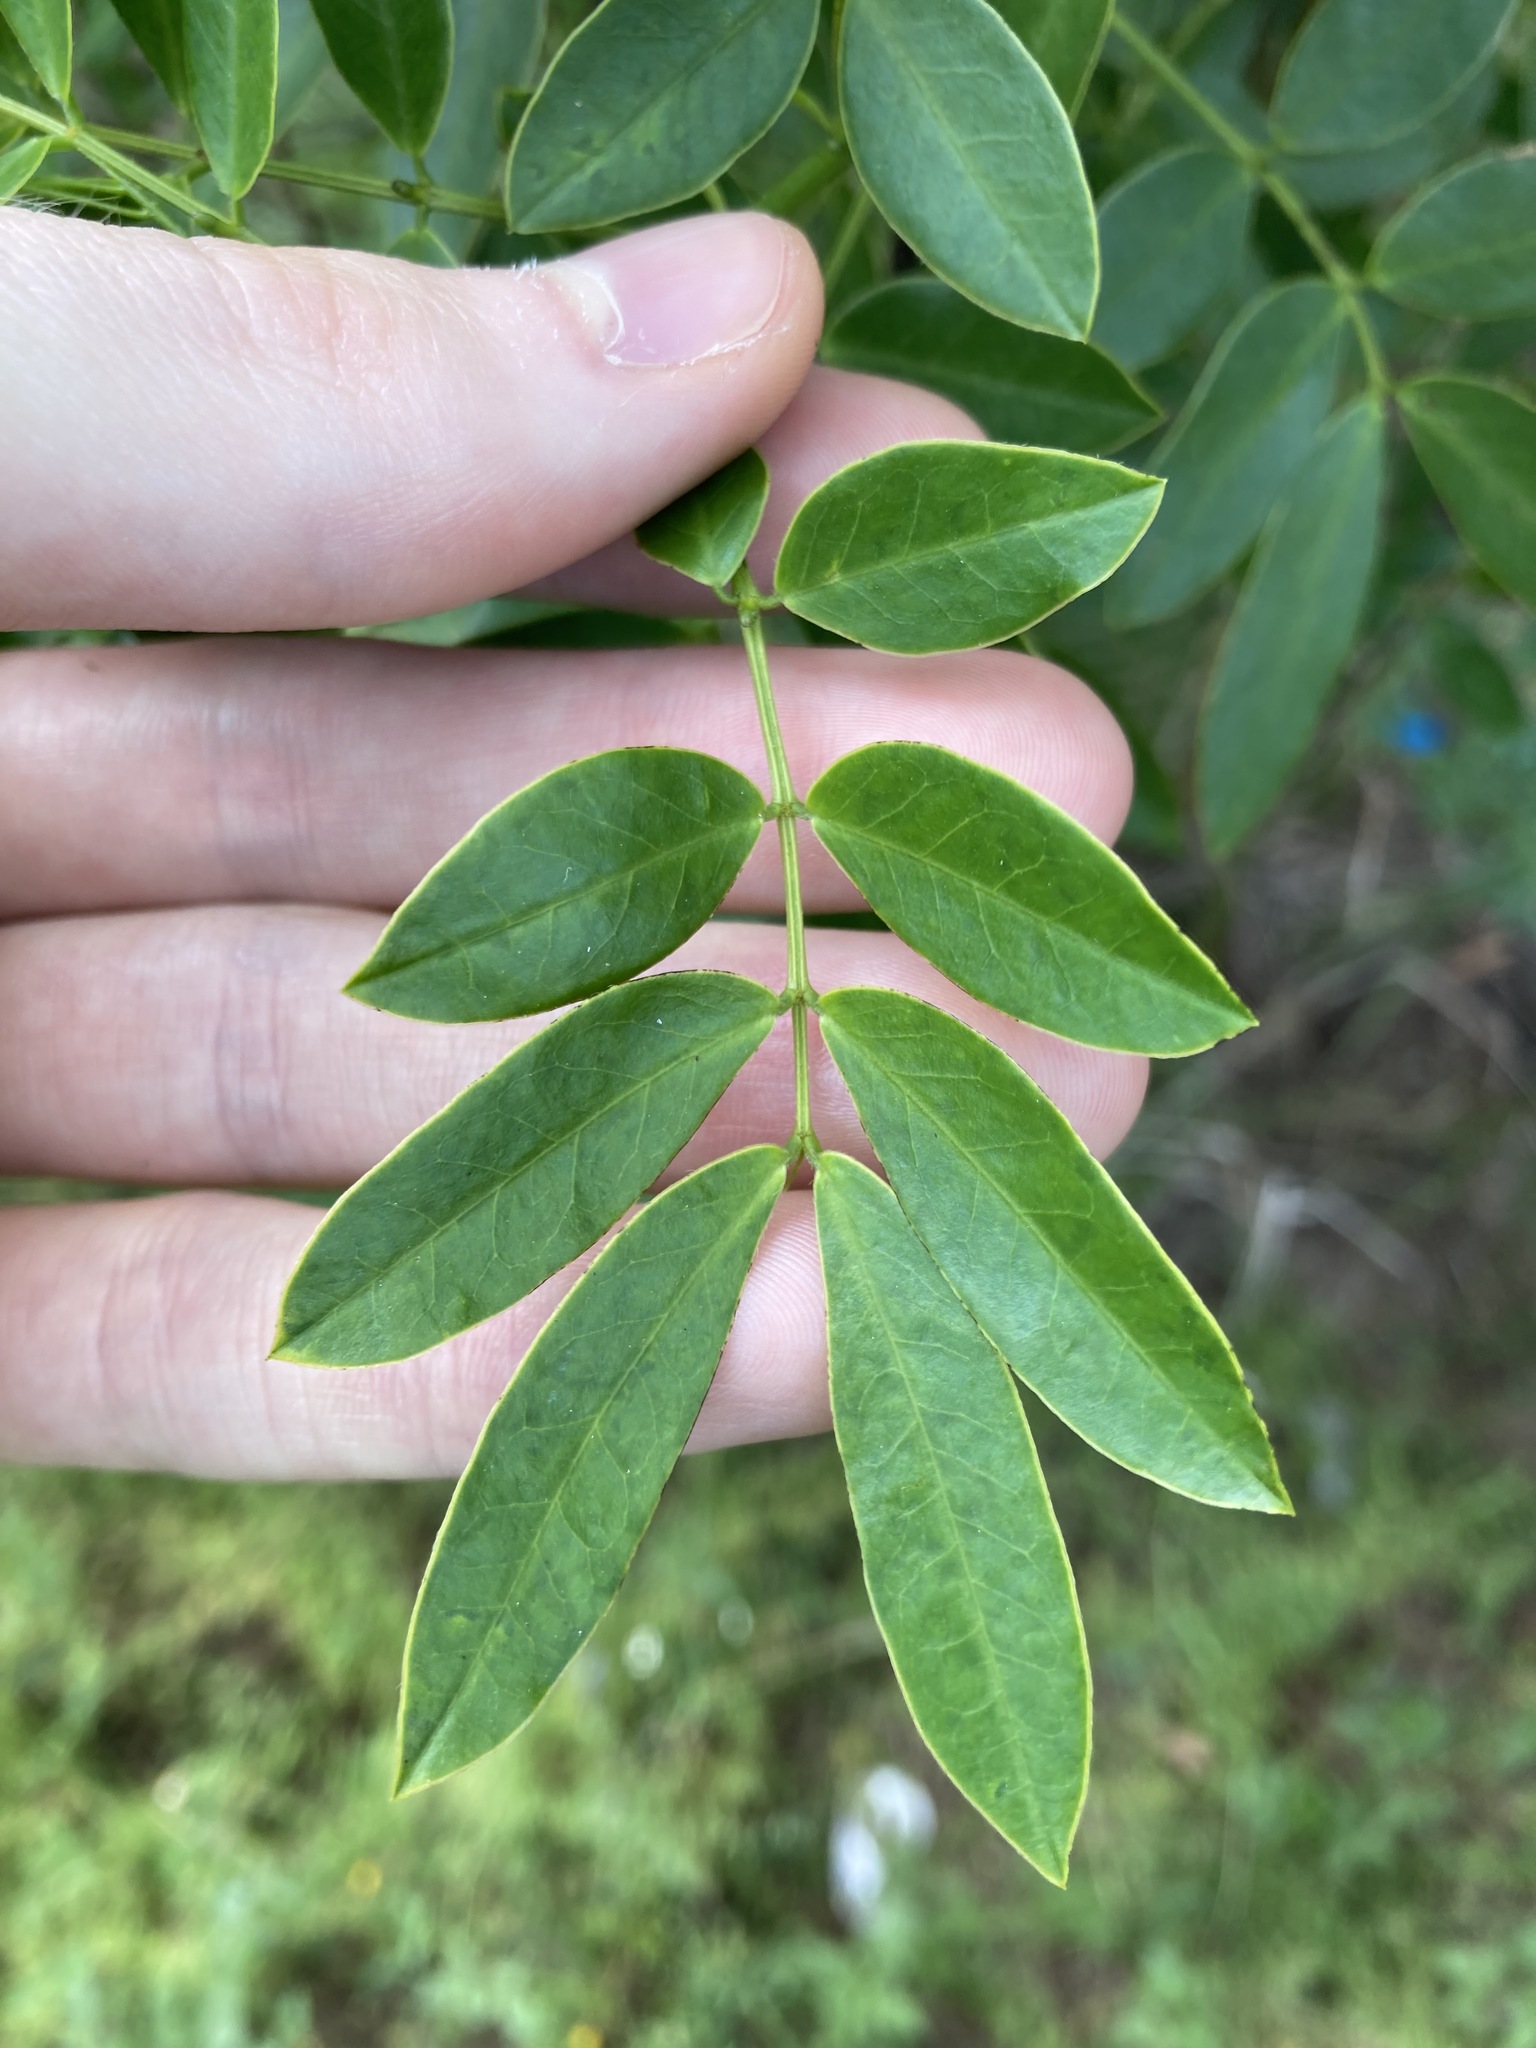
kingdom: Plantae
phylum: Tracheophyta
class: Magnoliopsida
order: Fabales
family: Fabaceae
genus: Senna
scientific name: Senna pendula
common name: Easter cassia
